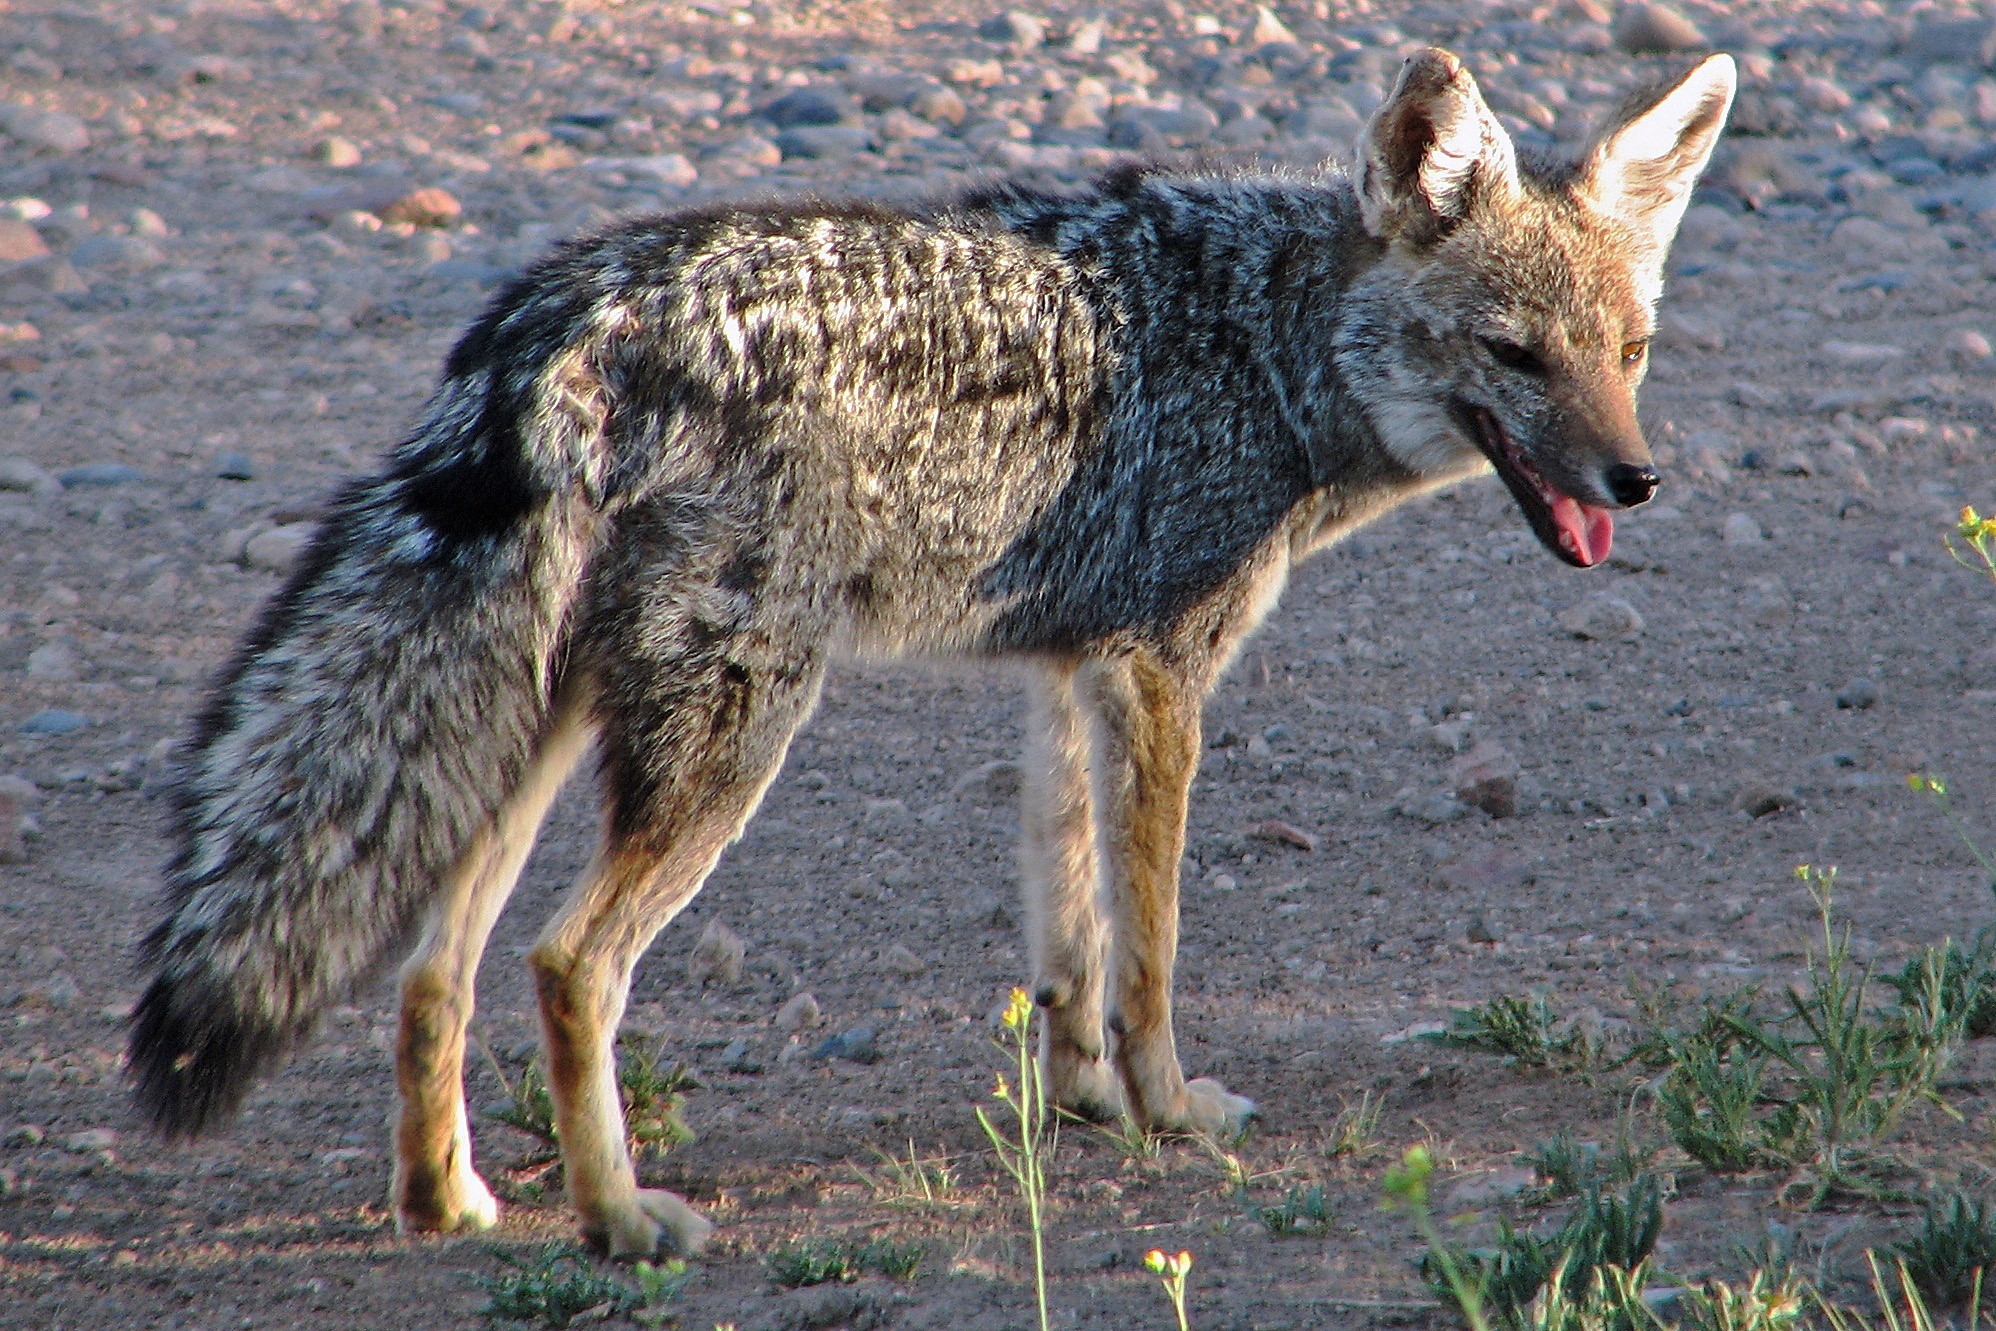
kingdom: Animalia
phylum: Chordata
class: Mammalia
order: Carnivora
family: Canidae
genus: Lycalopex
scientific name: Lycalopex gymnocercus
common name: Pampas fox
